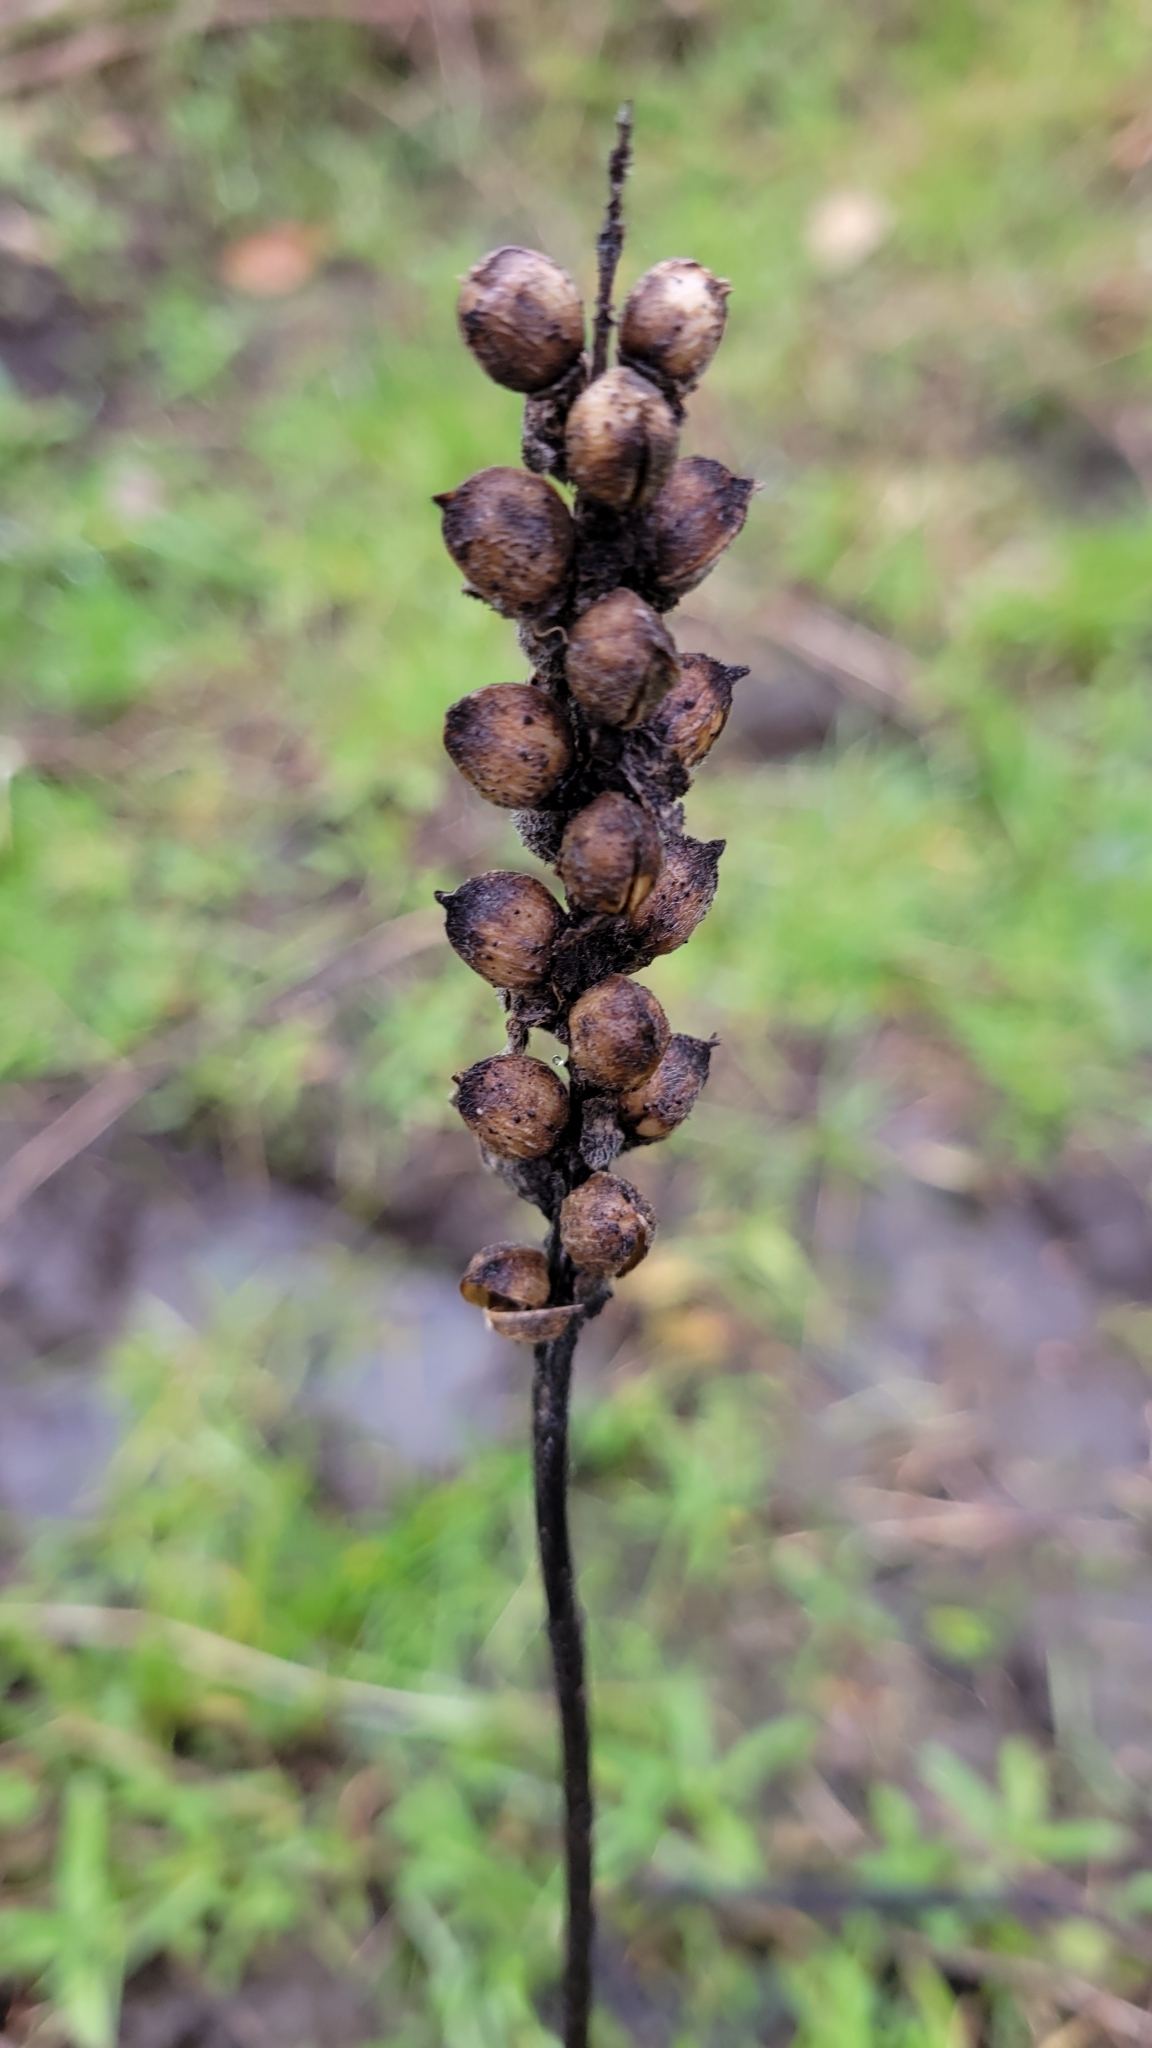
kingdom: Plantae
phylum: Tracheophyta
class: Magnoliopsida
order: Lamiales
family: Orobanchaceae
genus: Bellardia
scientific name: Bellardia trixago
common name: Mediterranean lineseed
